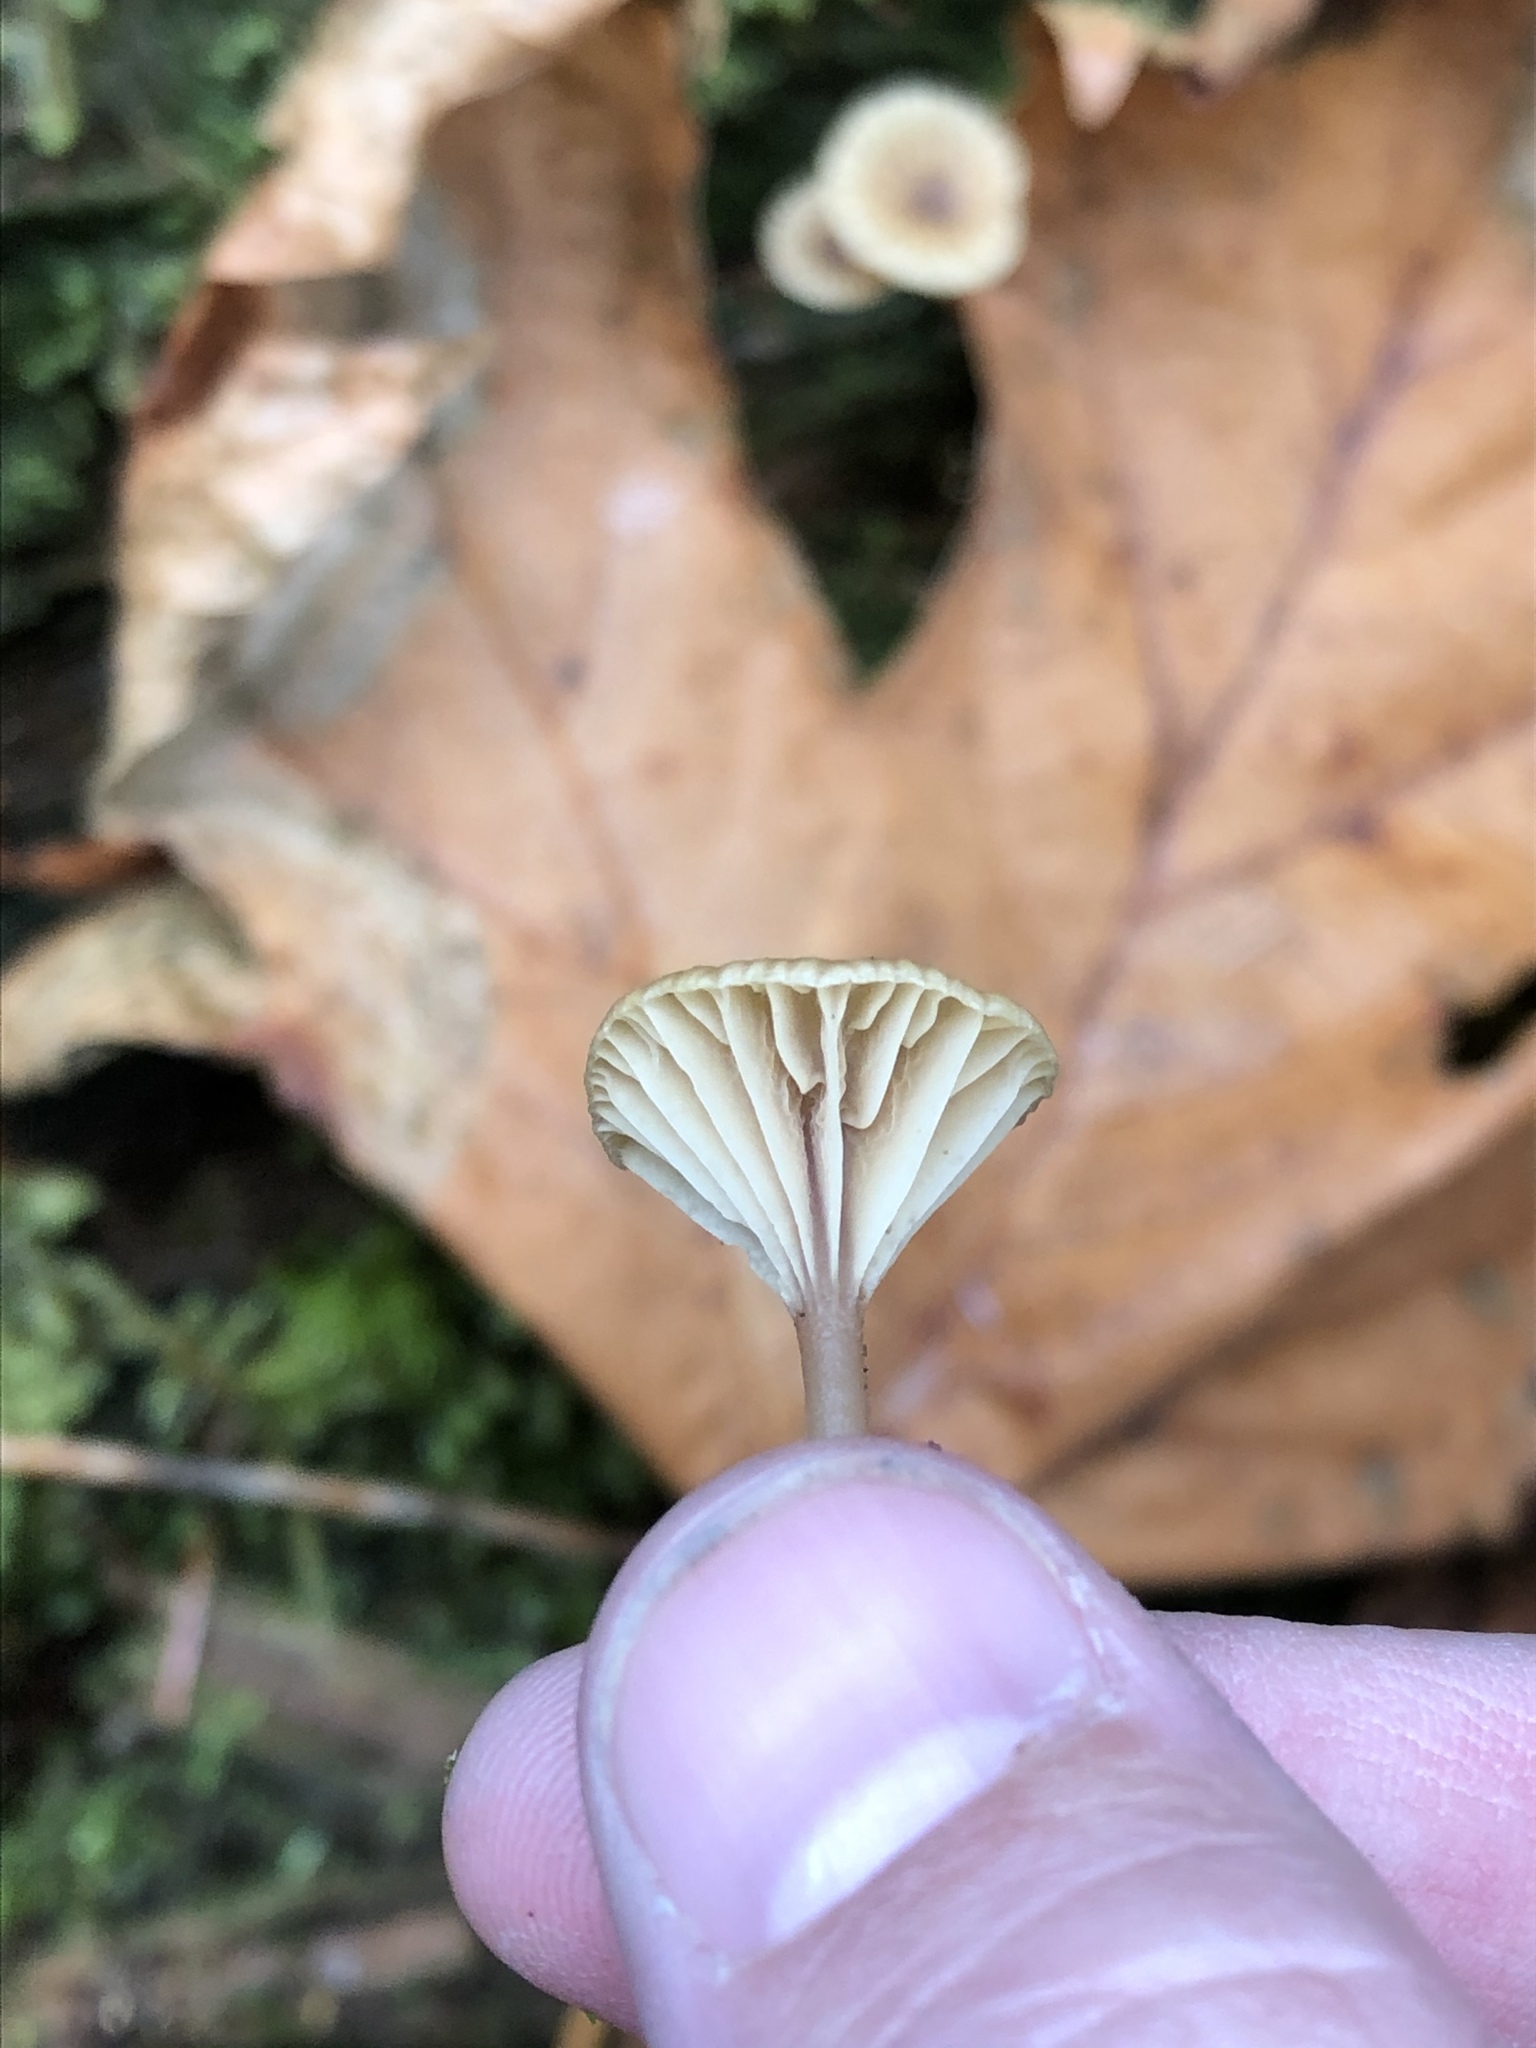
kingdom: Fungi
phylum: Basidiomycota
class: Agaricomycetes
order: Agaricales
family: Hygrophoraceae
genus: Lichenomphalia
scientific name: Lichenomphalia
